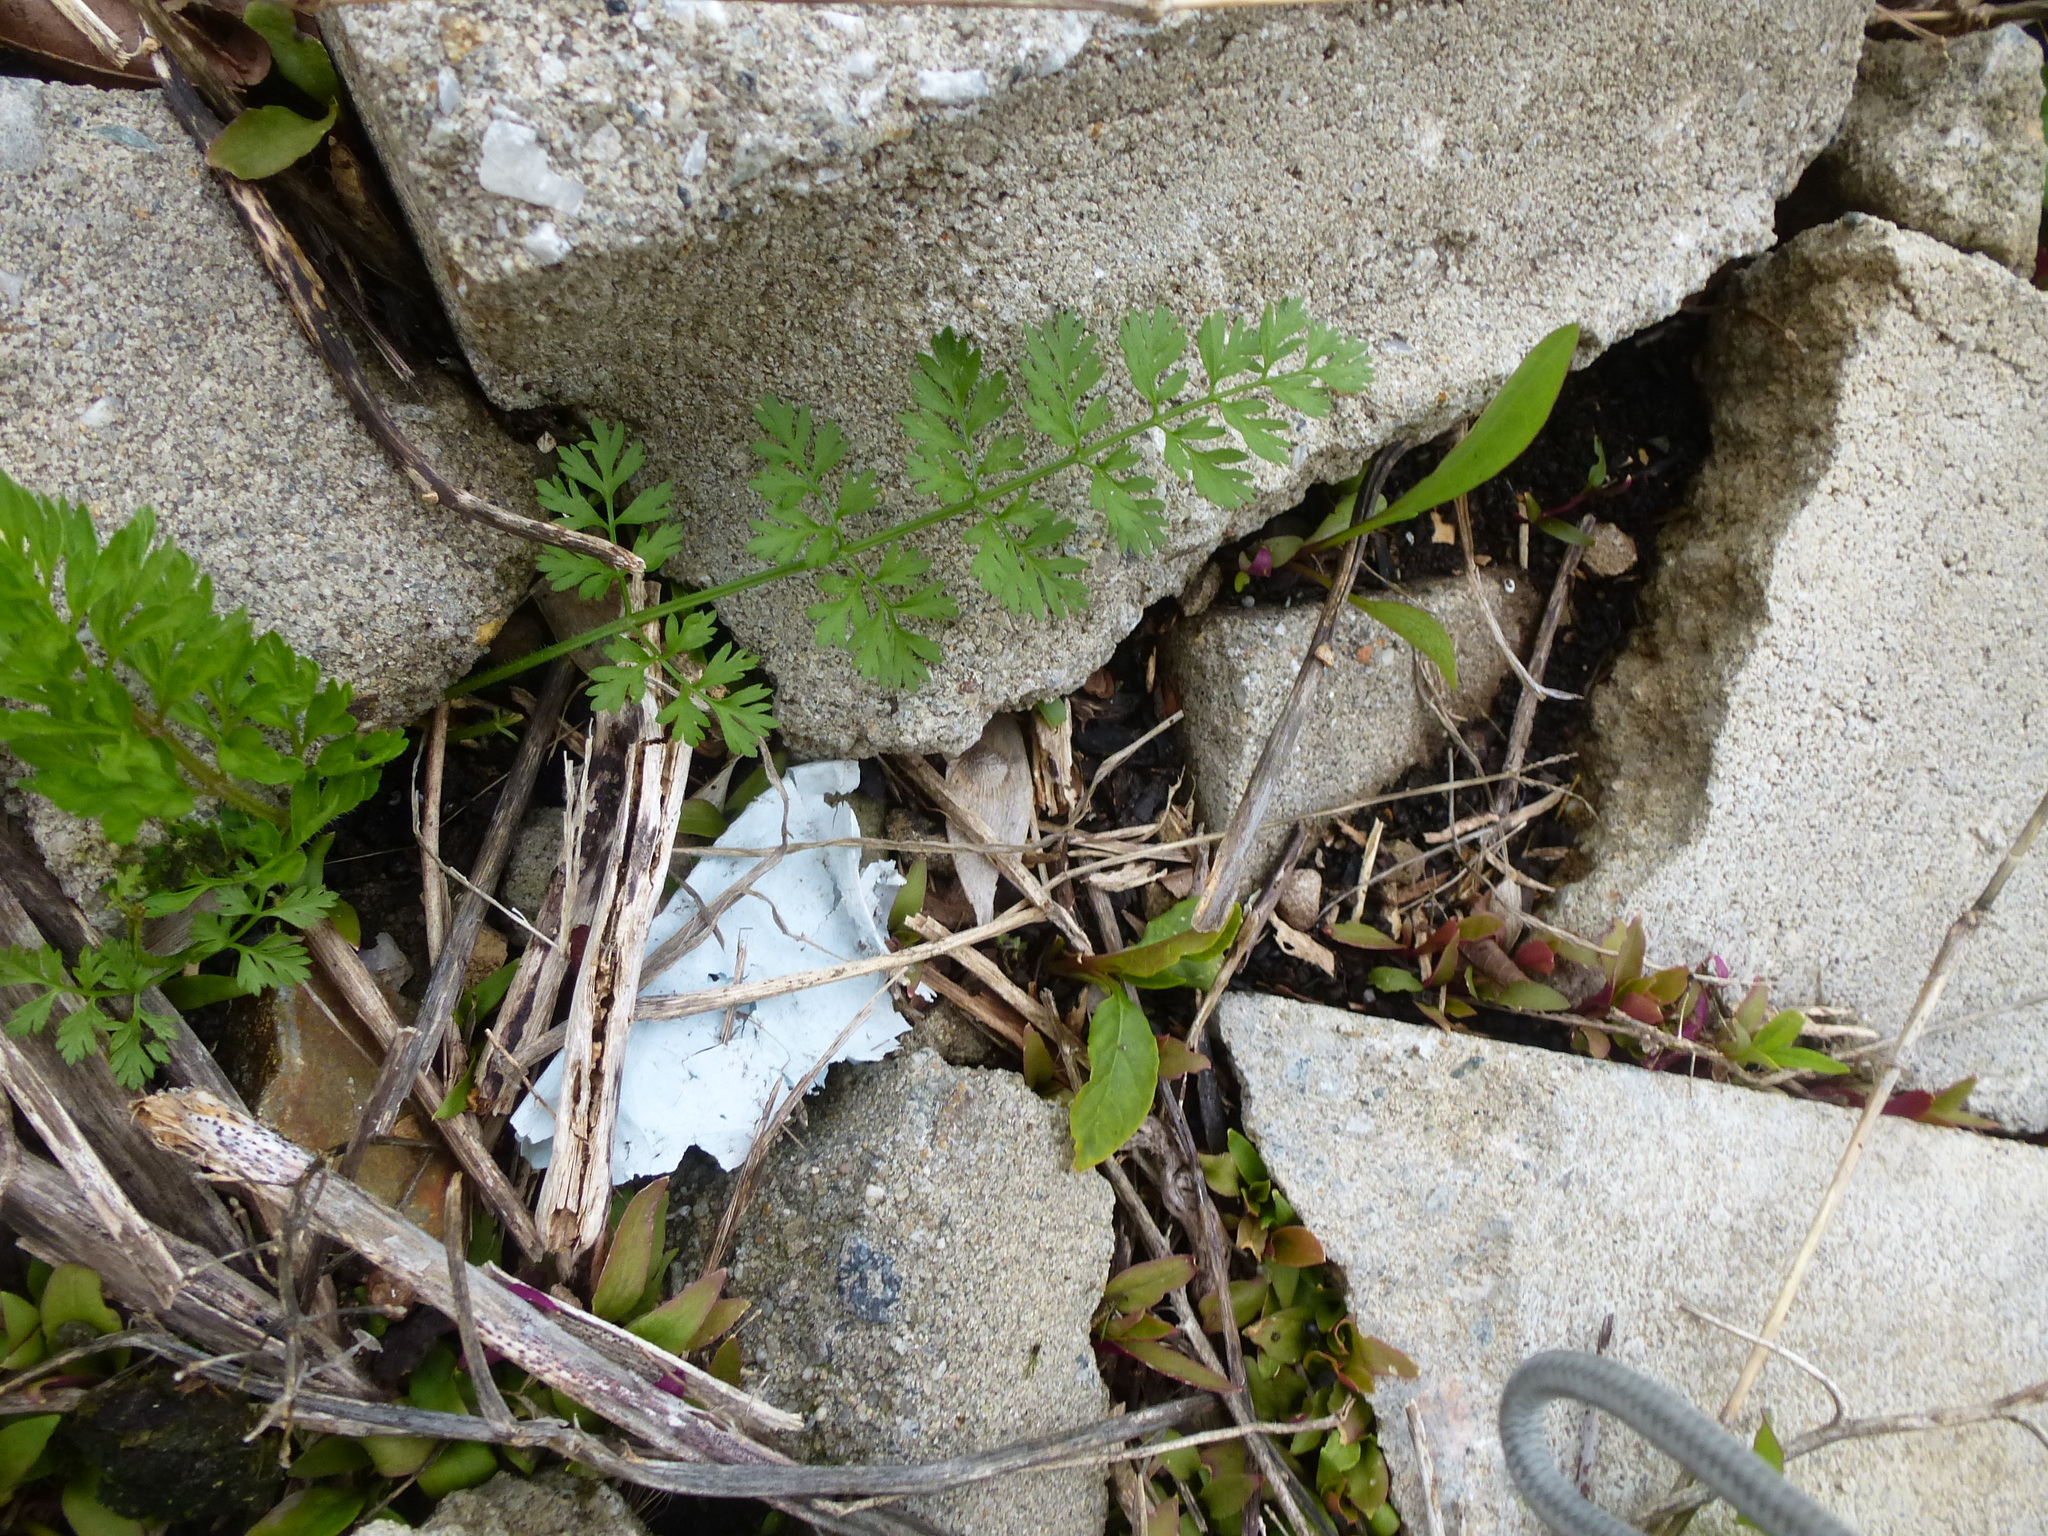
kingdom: Plantae
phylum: Tracheophyta
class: Magnoliopsida
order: Apiales
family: Apiaceae
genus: Daucus
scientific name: Daucus carota
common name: Wild carrot
